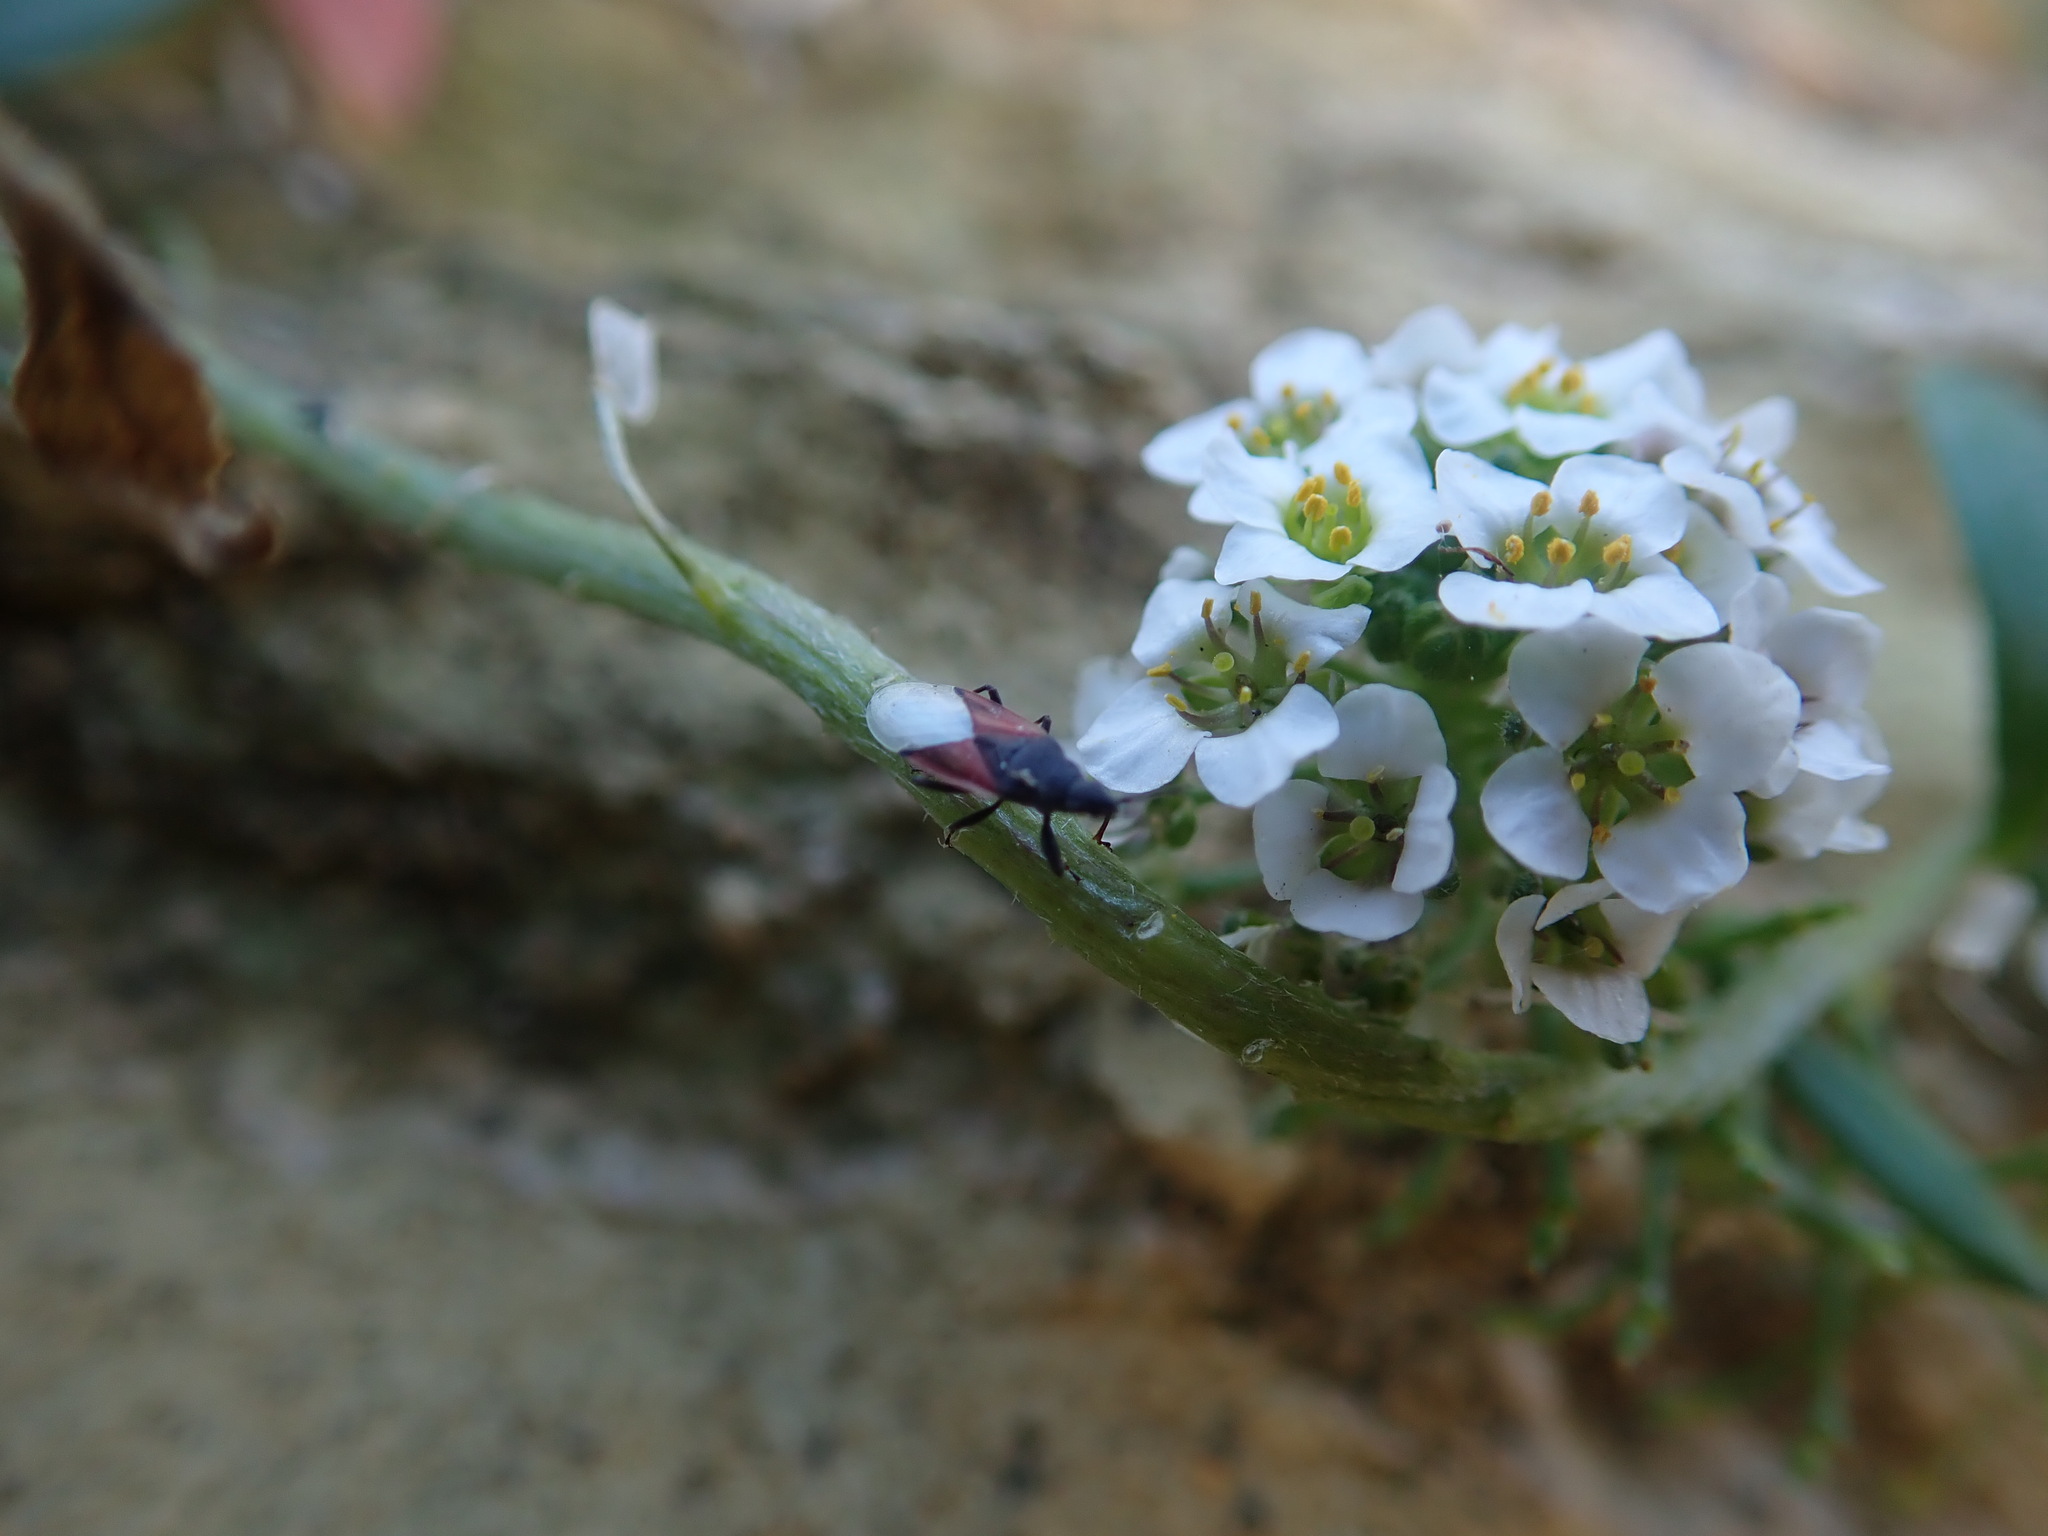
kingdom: Animalia
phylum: Arthropoda
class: Insecta
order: Hemiptera
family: Oxycarenidae
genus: Oxycarenus
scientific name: Oxycarenus lavaterae
